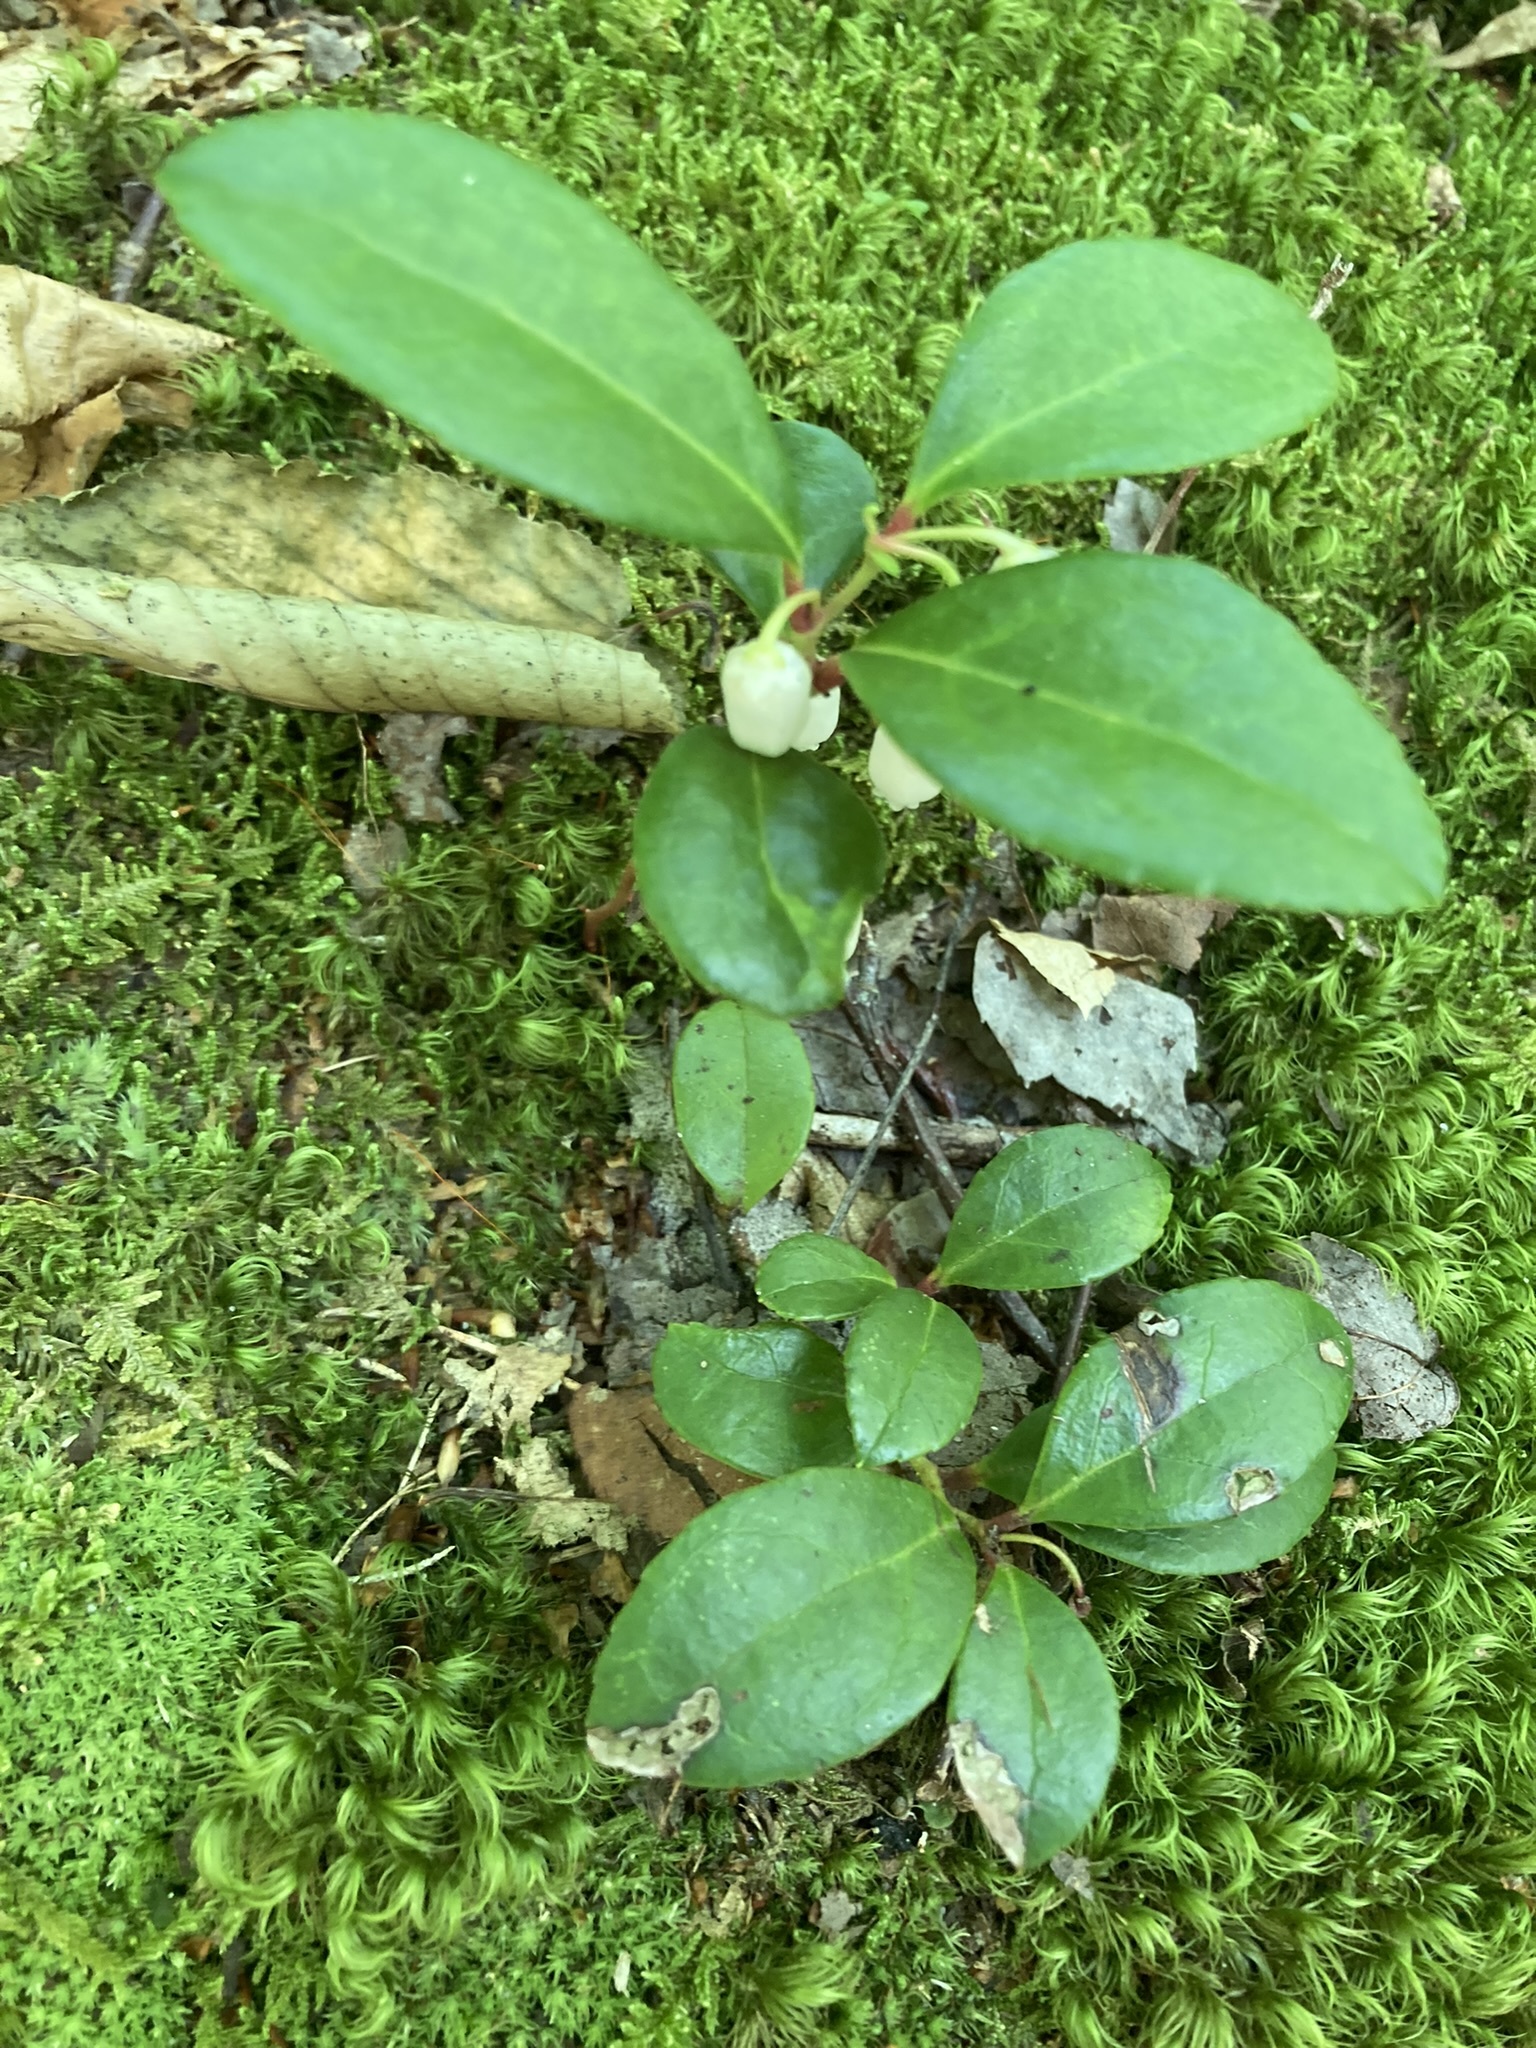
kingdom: Plantae
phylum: Tracheophyta
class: Magnoliopsida
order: Ericales
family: Ericaceae
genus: Gaultheria
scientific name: Gaultheria procumbens
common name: Checkerberry
